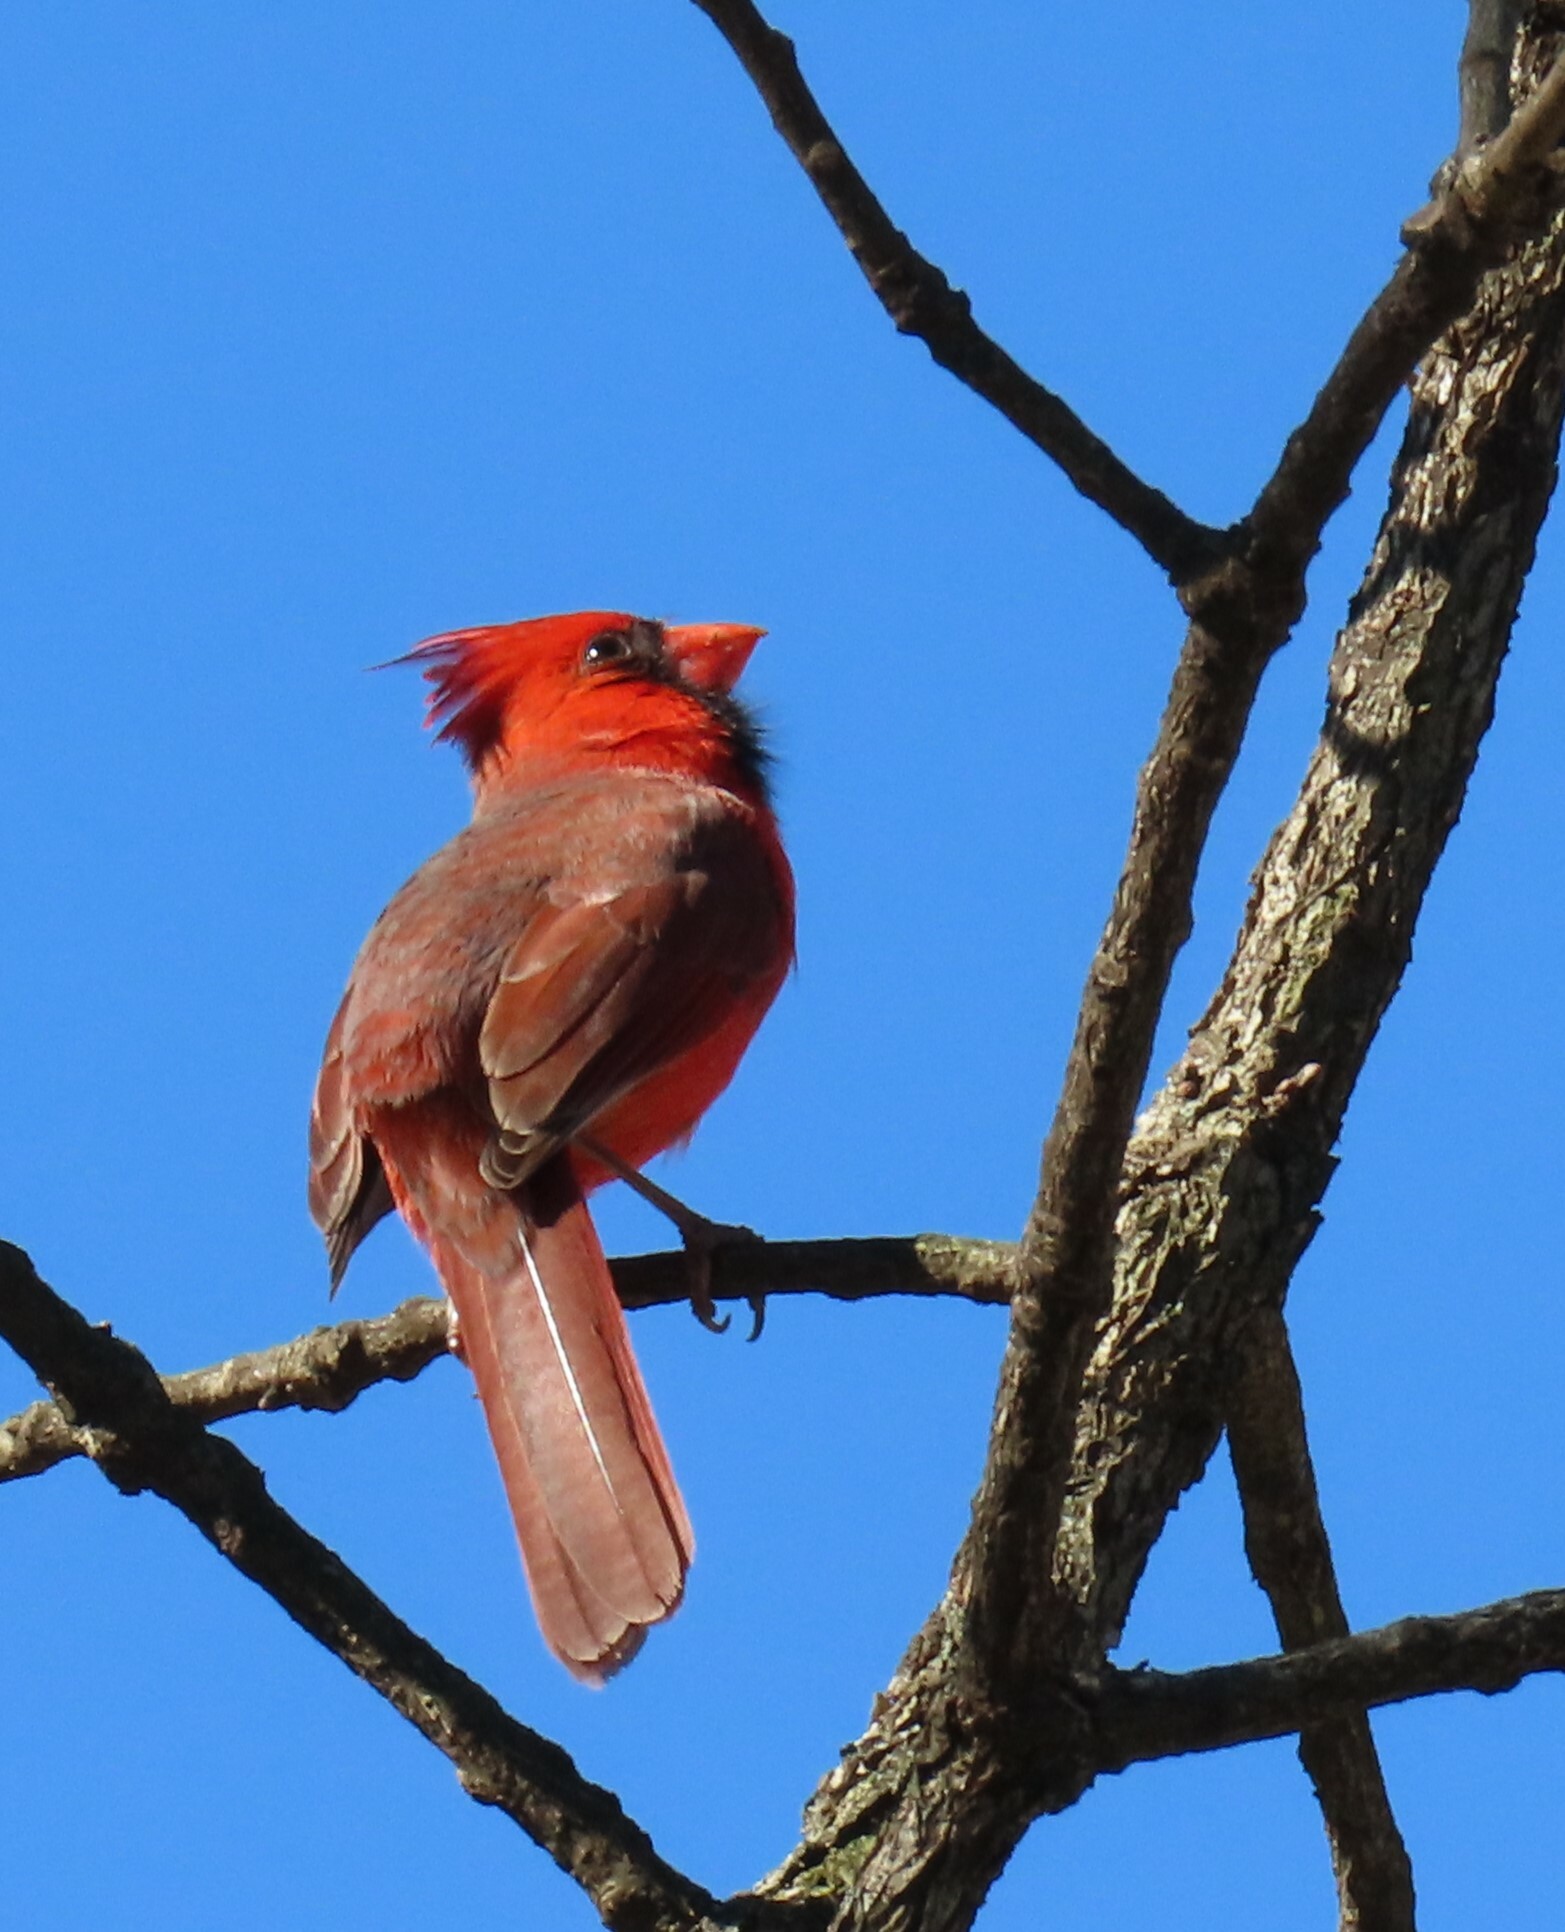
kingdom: Animalia
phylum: Chordata
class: Aves
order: Passeriformes
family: Cardinalidae
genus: Cardinalis
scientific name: Cardinalis cardinalis
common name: Northern cardinal
